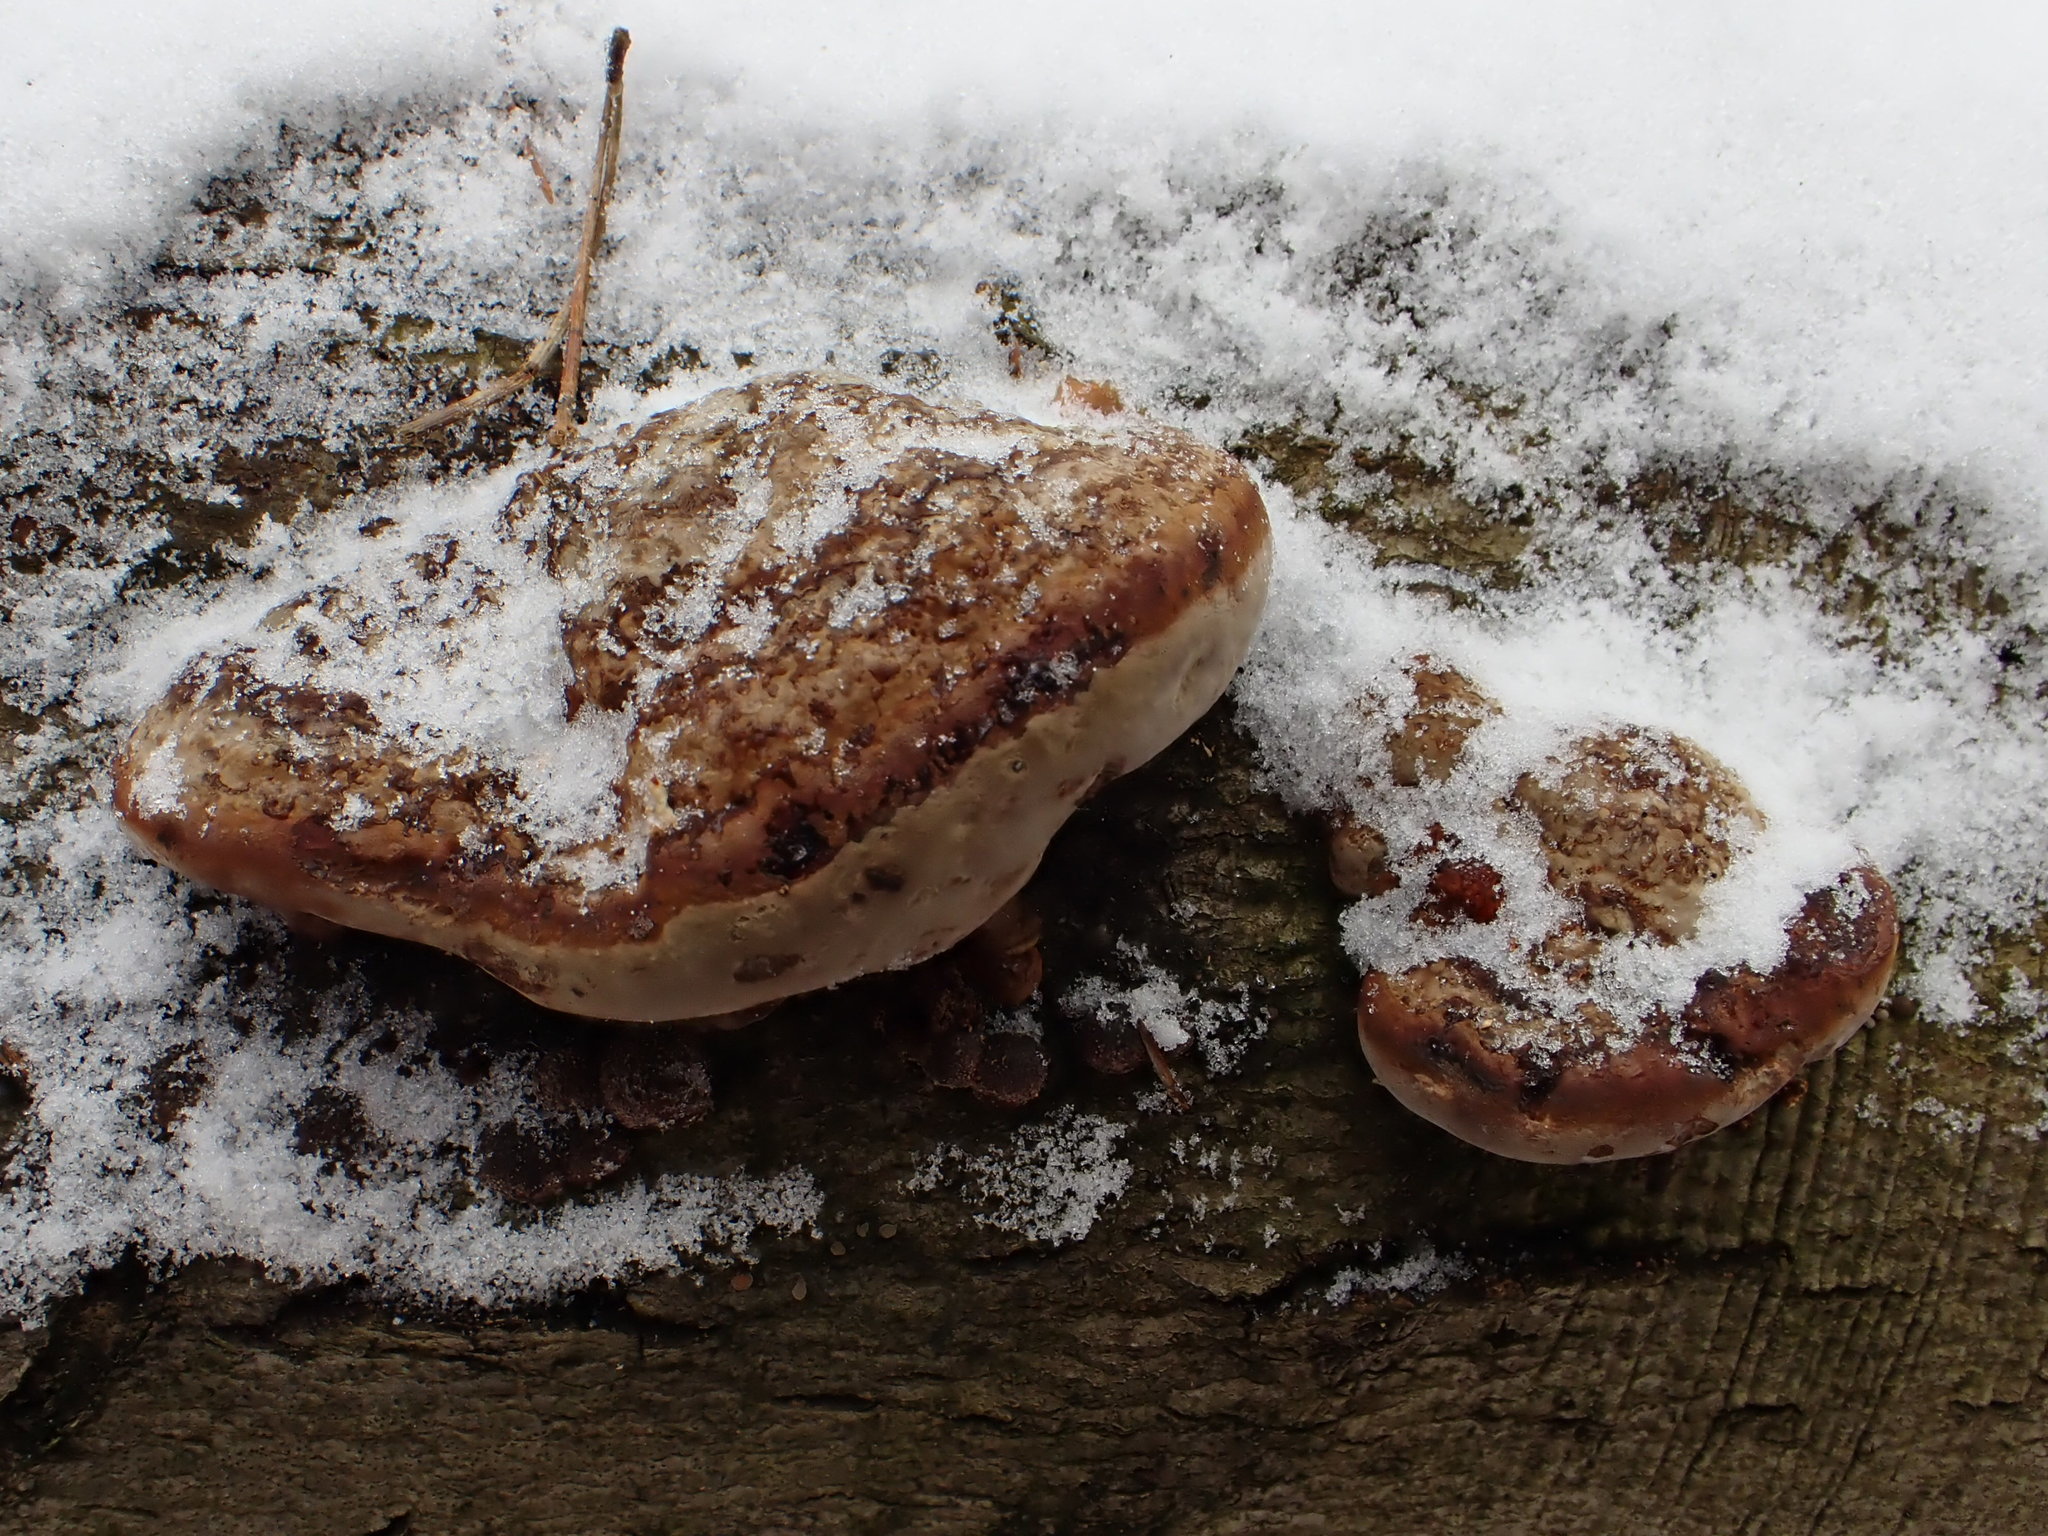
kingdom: Fungi
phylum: Basidiomycota
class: Agaricomycetes
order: Polyporales
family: Fomitopsidaceae
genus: Fomitopsis
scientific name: Fomitopsis pinicola
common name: Red-belted bracket
